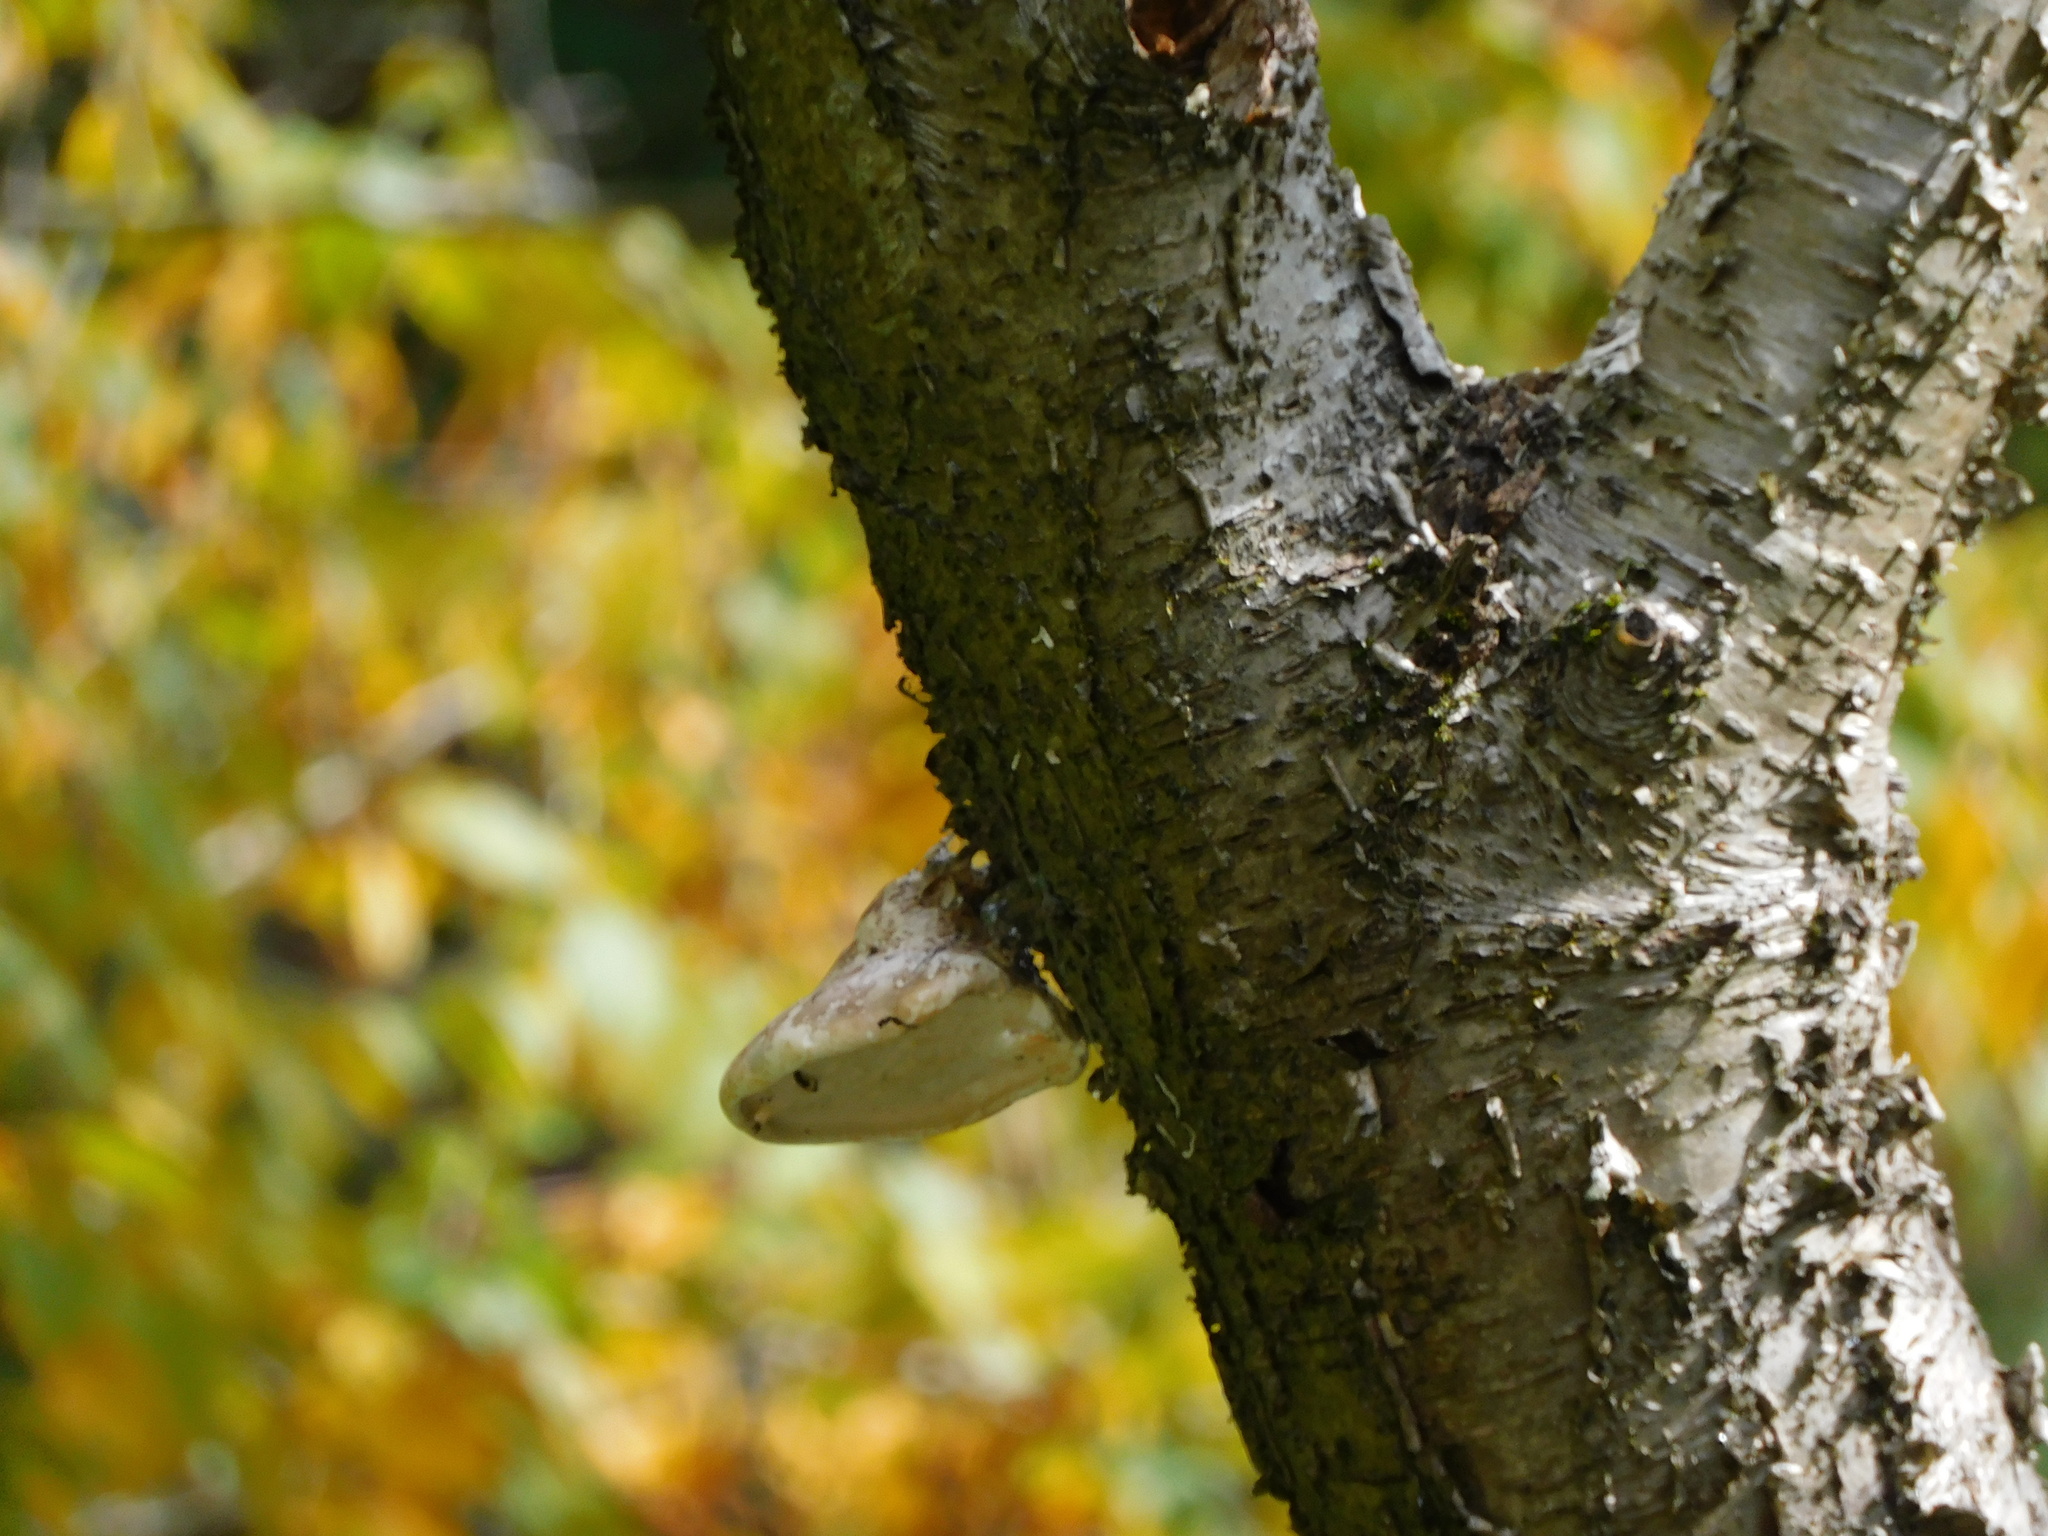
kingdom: Fungi
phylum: Basidiomycota
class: Agaricomycetes
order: Polyporales
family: Fomitopsidaceae
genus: Fomitopsis
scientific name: Fomitopsis betulina
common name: Birch polypore
